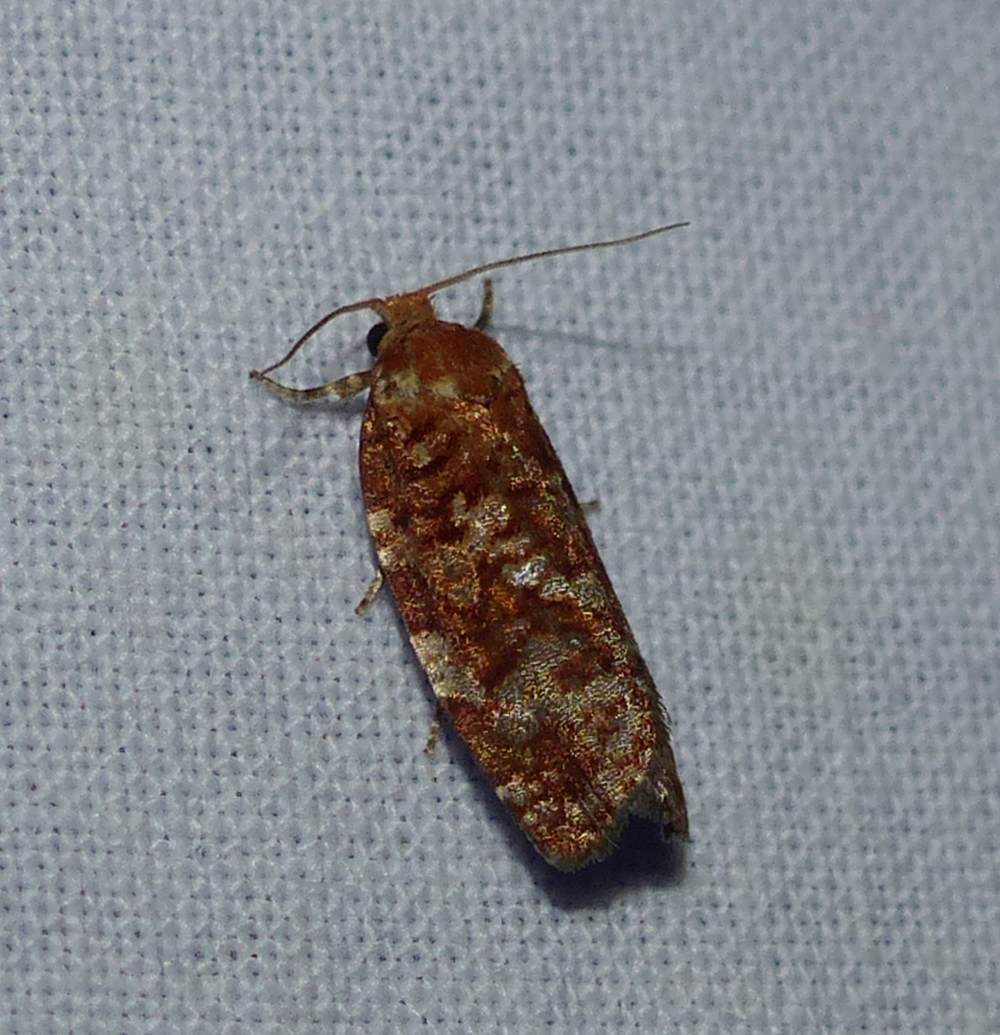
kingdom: Animalia
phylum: Arthropoda
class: Insecta
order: Lepidoptera
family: Tortricidae
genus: Choristoneura
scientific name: Choristoneura pinus
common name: Jack pine budworm
